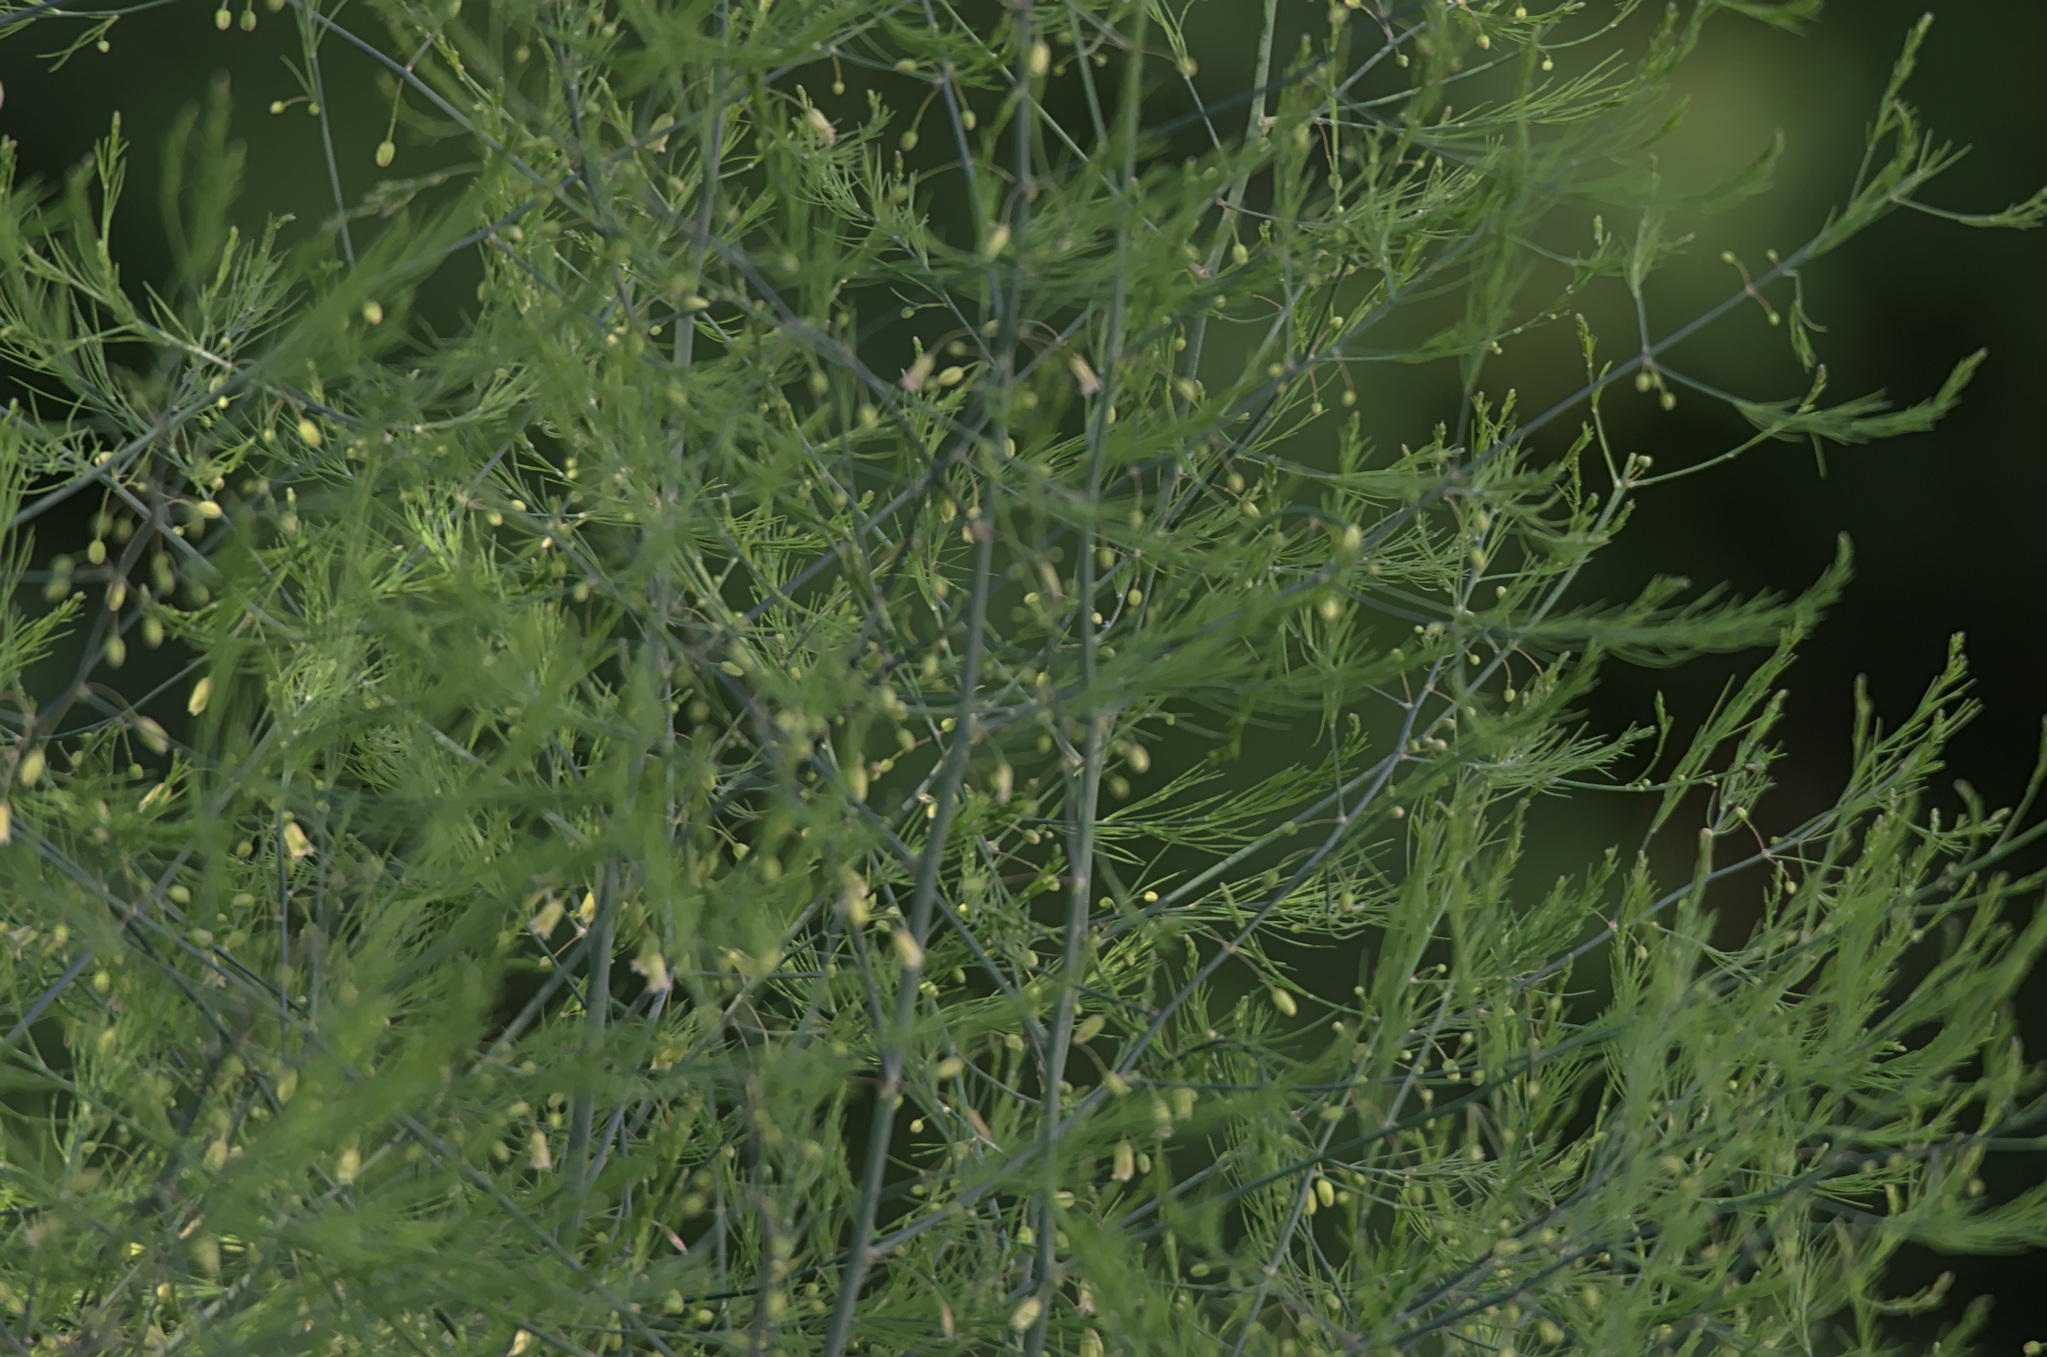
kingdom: Plantae
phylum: Tracheophyta
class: Liliopsida
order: Asparagales
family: Asparagaceae
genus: Asparagus
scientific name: Asparagus officinalis
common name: Garden asparagus
